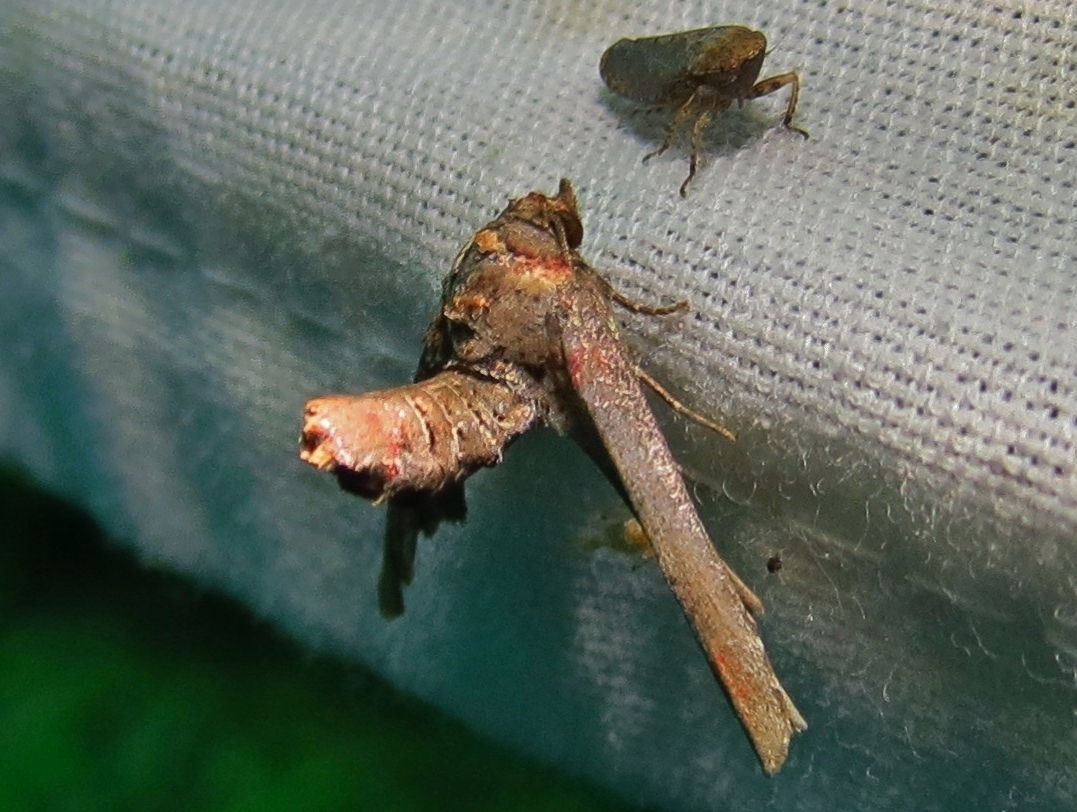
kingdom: Animalia
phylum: Arthropoda
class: Insecta
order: Lepidoptera
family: Euteliidae
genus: Marathyssa
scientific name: Marathyssa inficita
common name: Dark marathyssa moth
